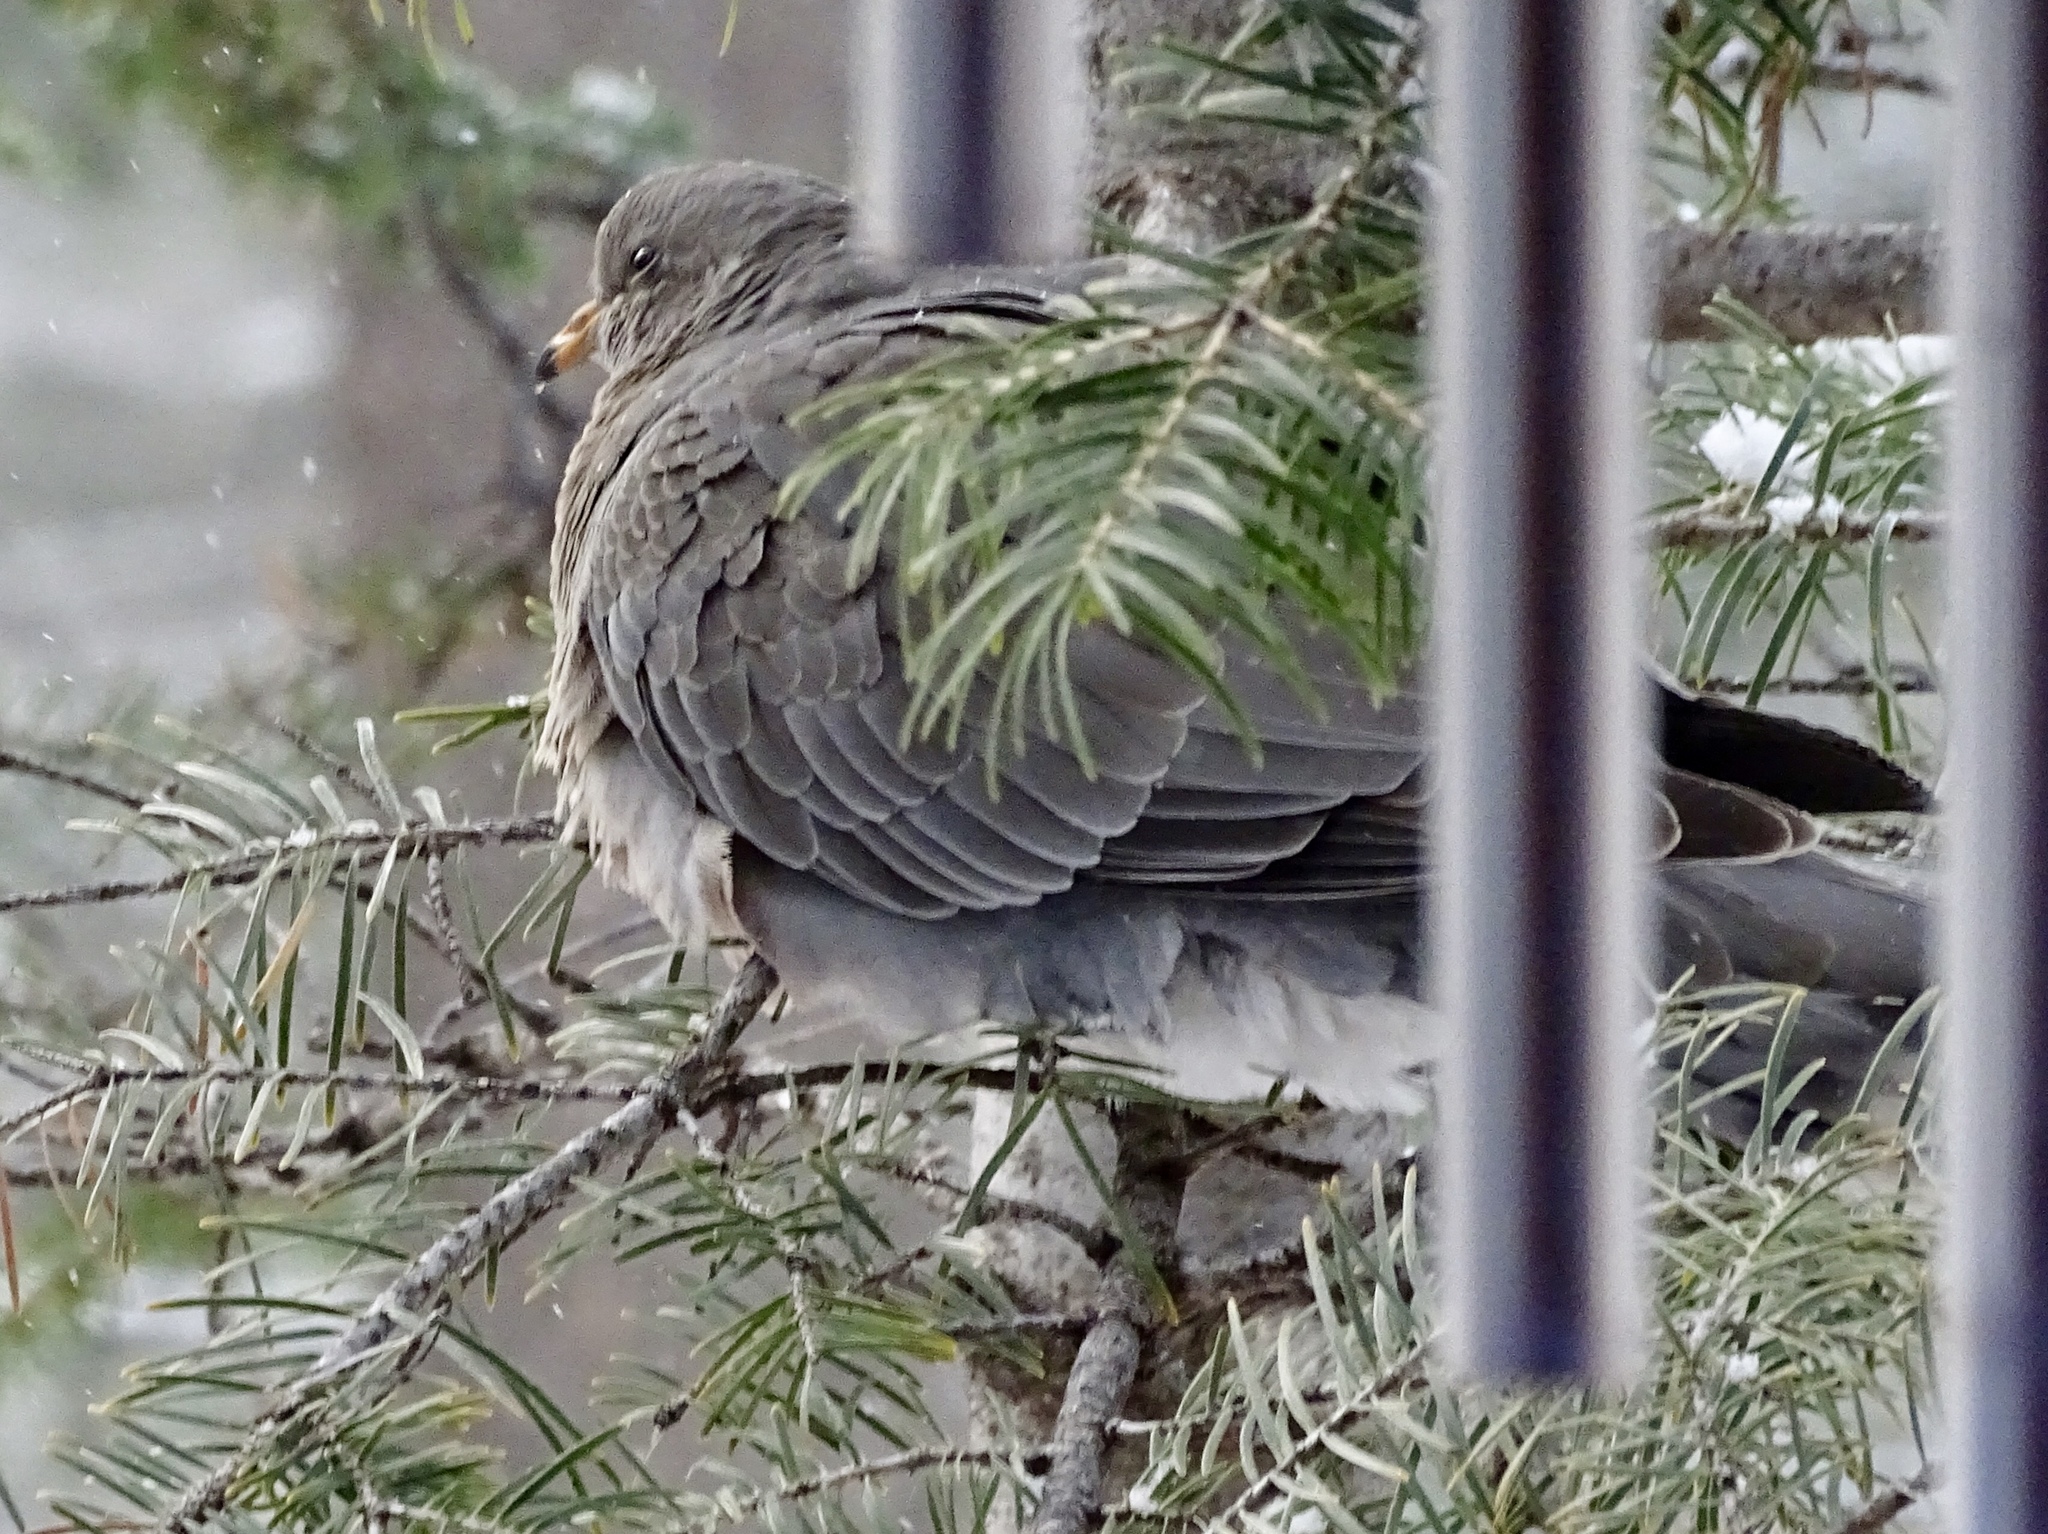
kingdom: Animalia
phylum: Chordata
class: Aves
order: Columbiformes
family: Columbidae
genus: Patagioenas
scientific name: Patagioenas fasciata
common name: Band-tailed pigeon
